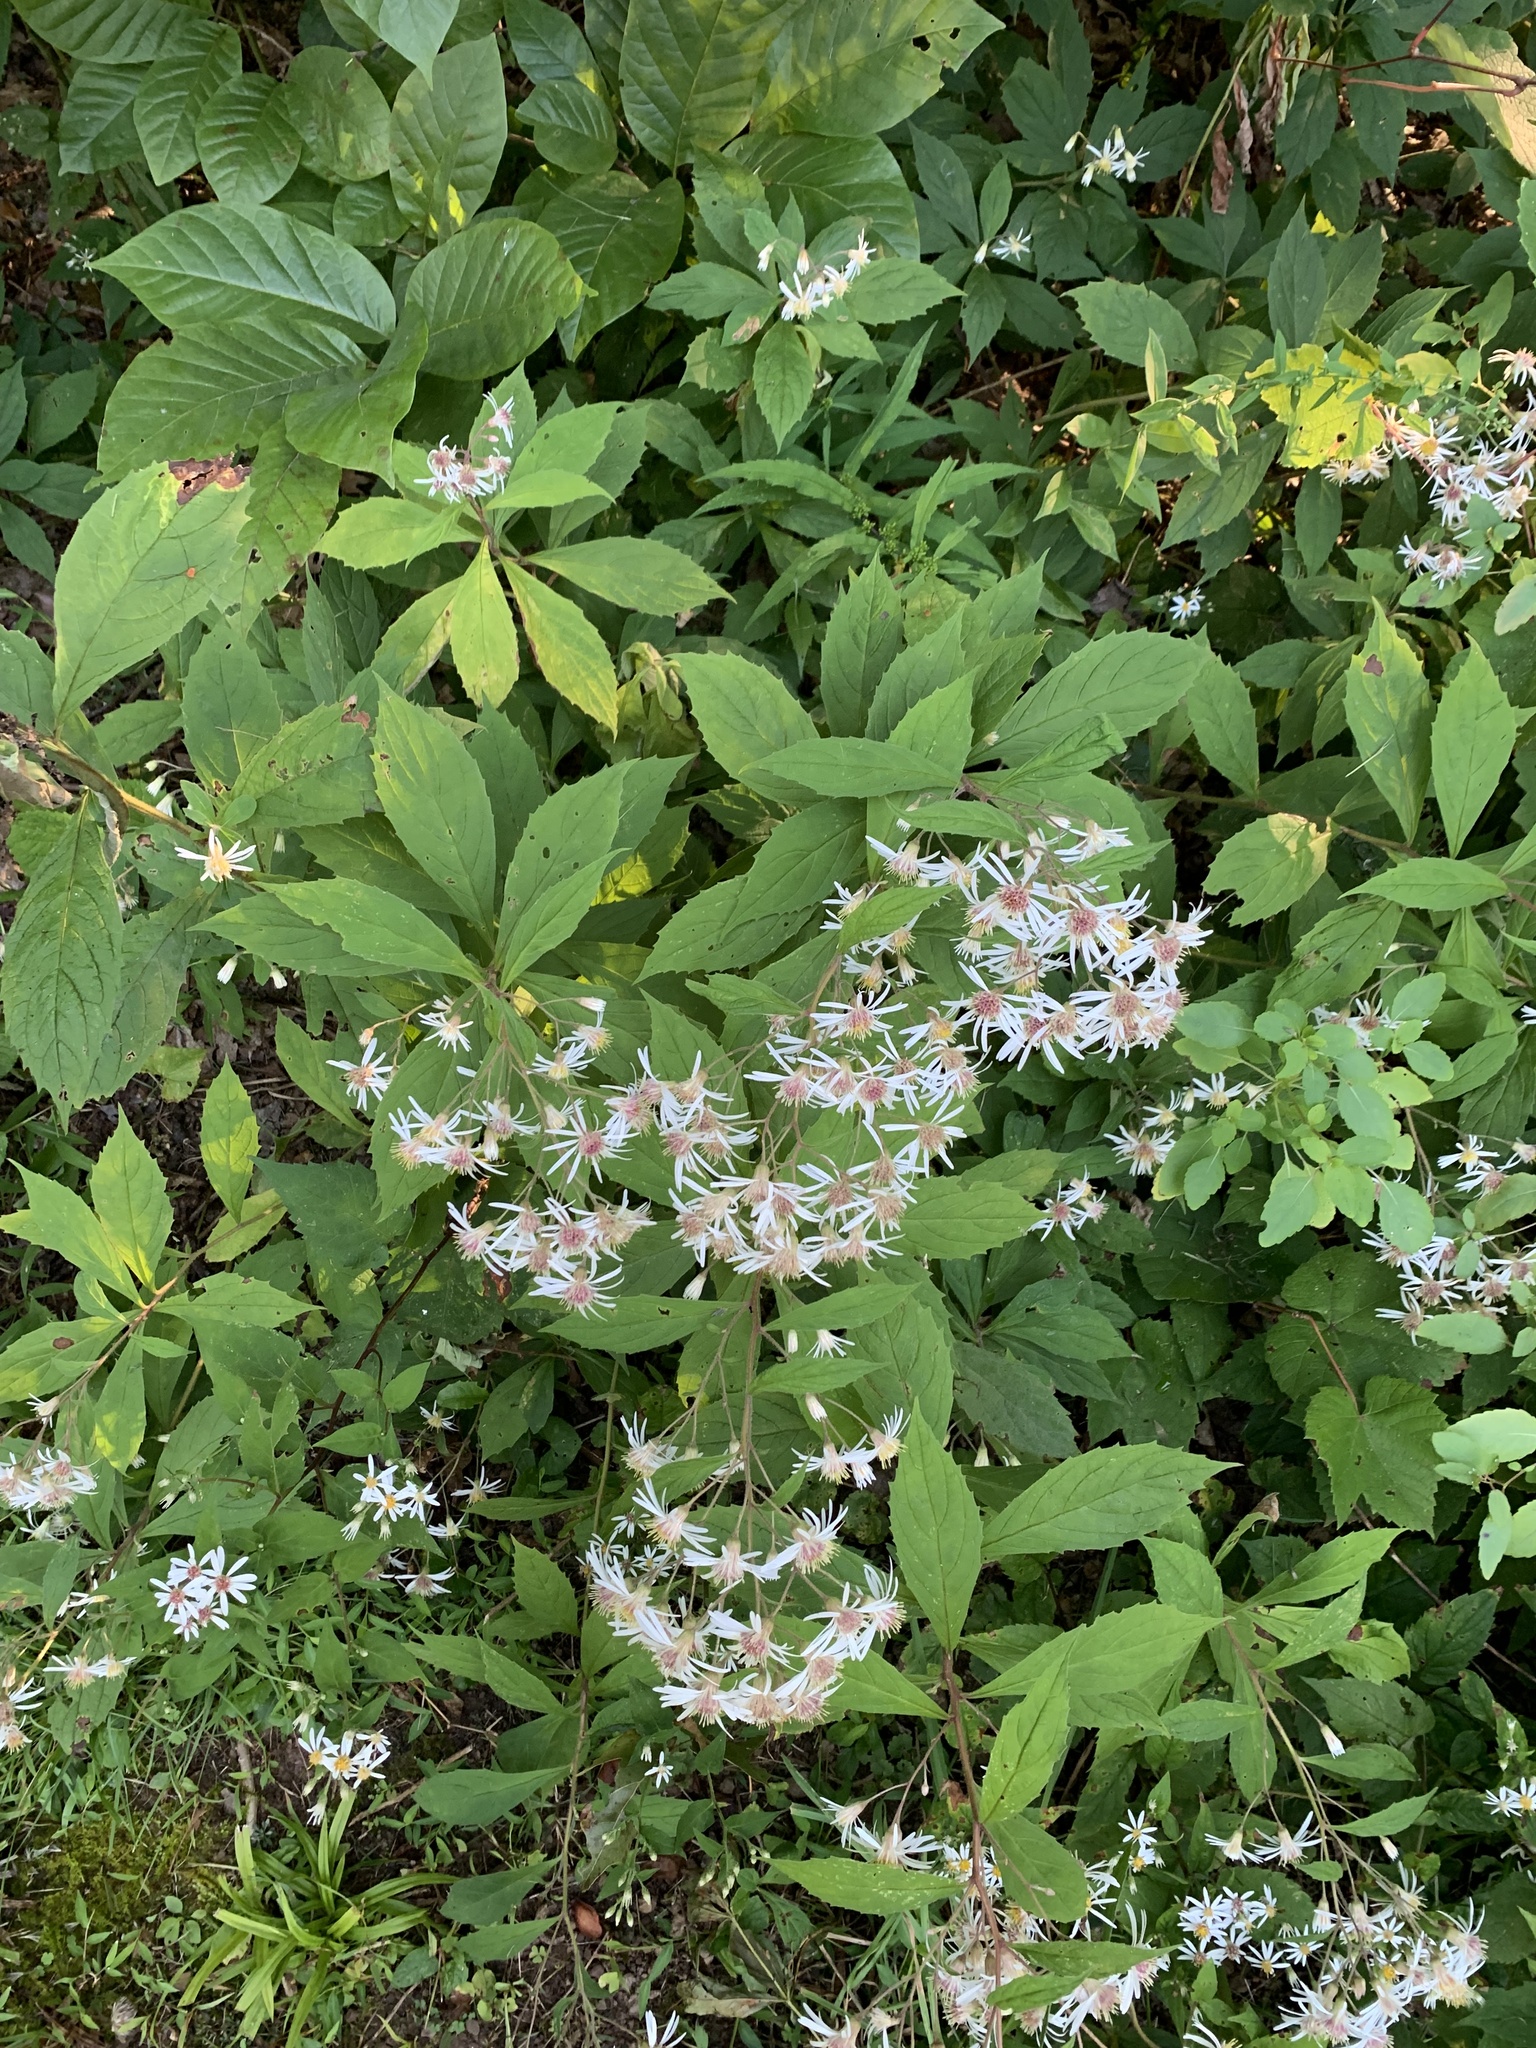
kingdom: Plantae
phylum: Tracheophyta
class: Magnoliopsida
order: Asterales
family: Asteraceae
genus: Oclemena
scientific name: Oclemena acuminata
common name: Mountain aster
